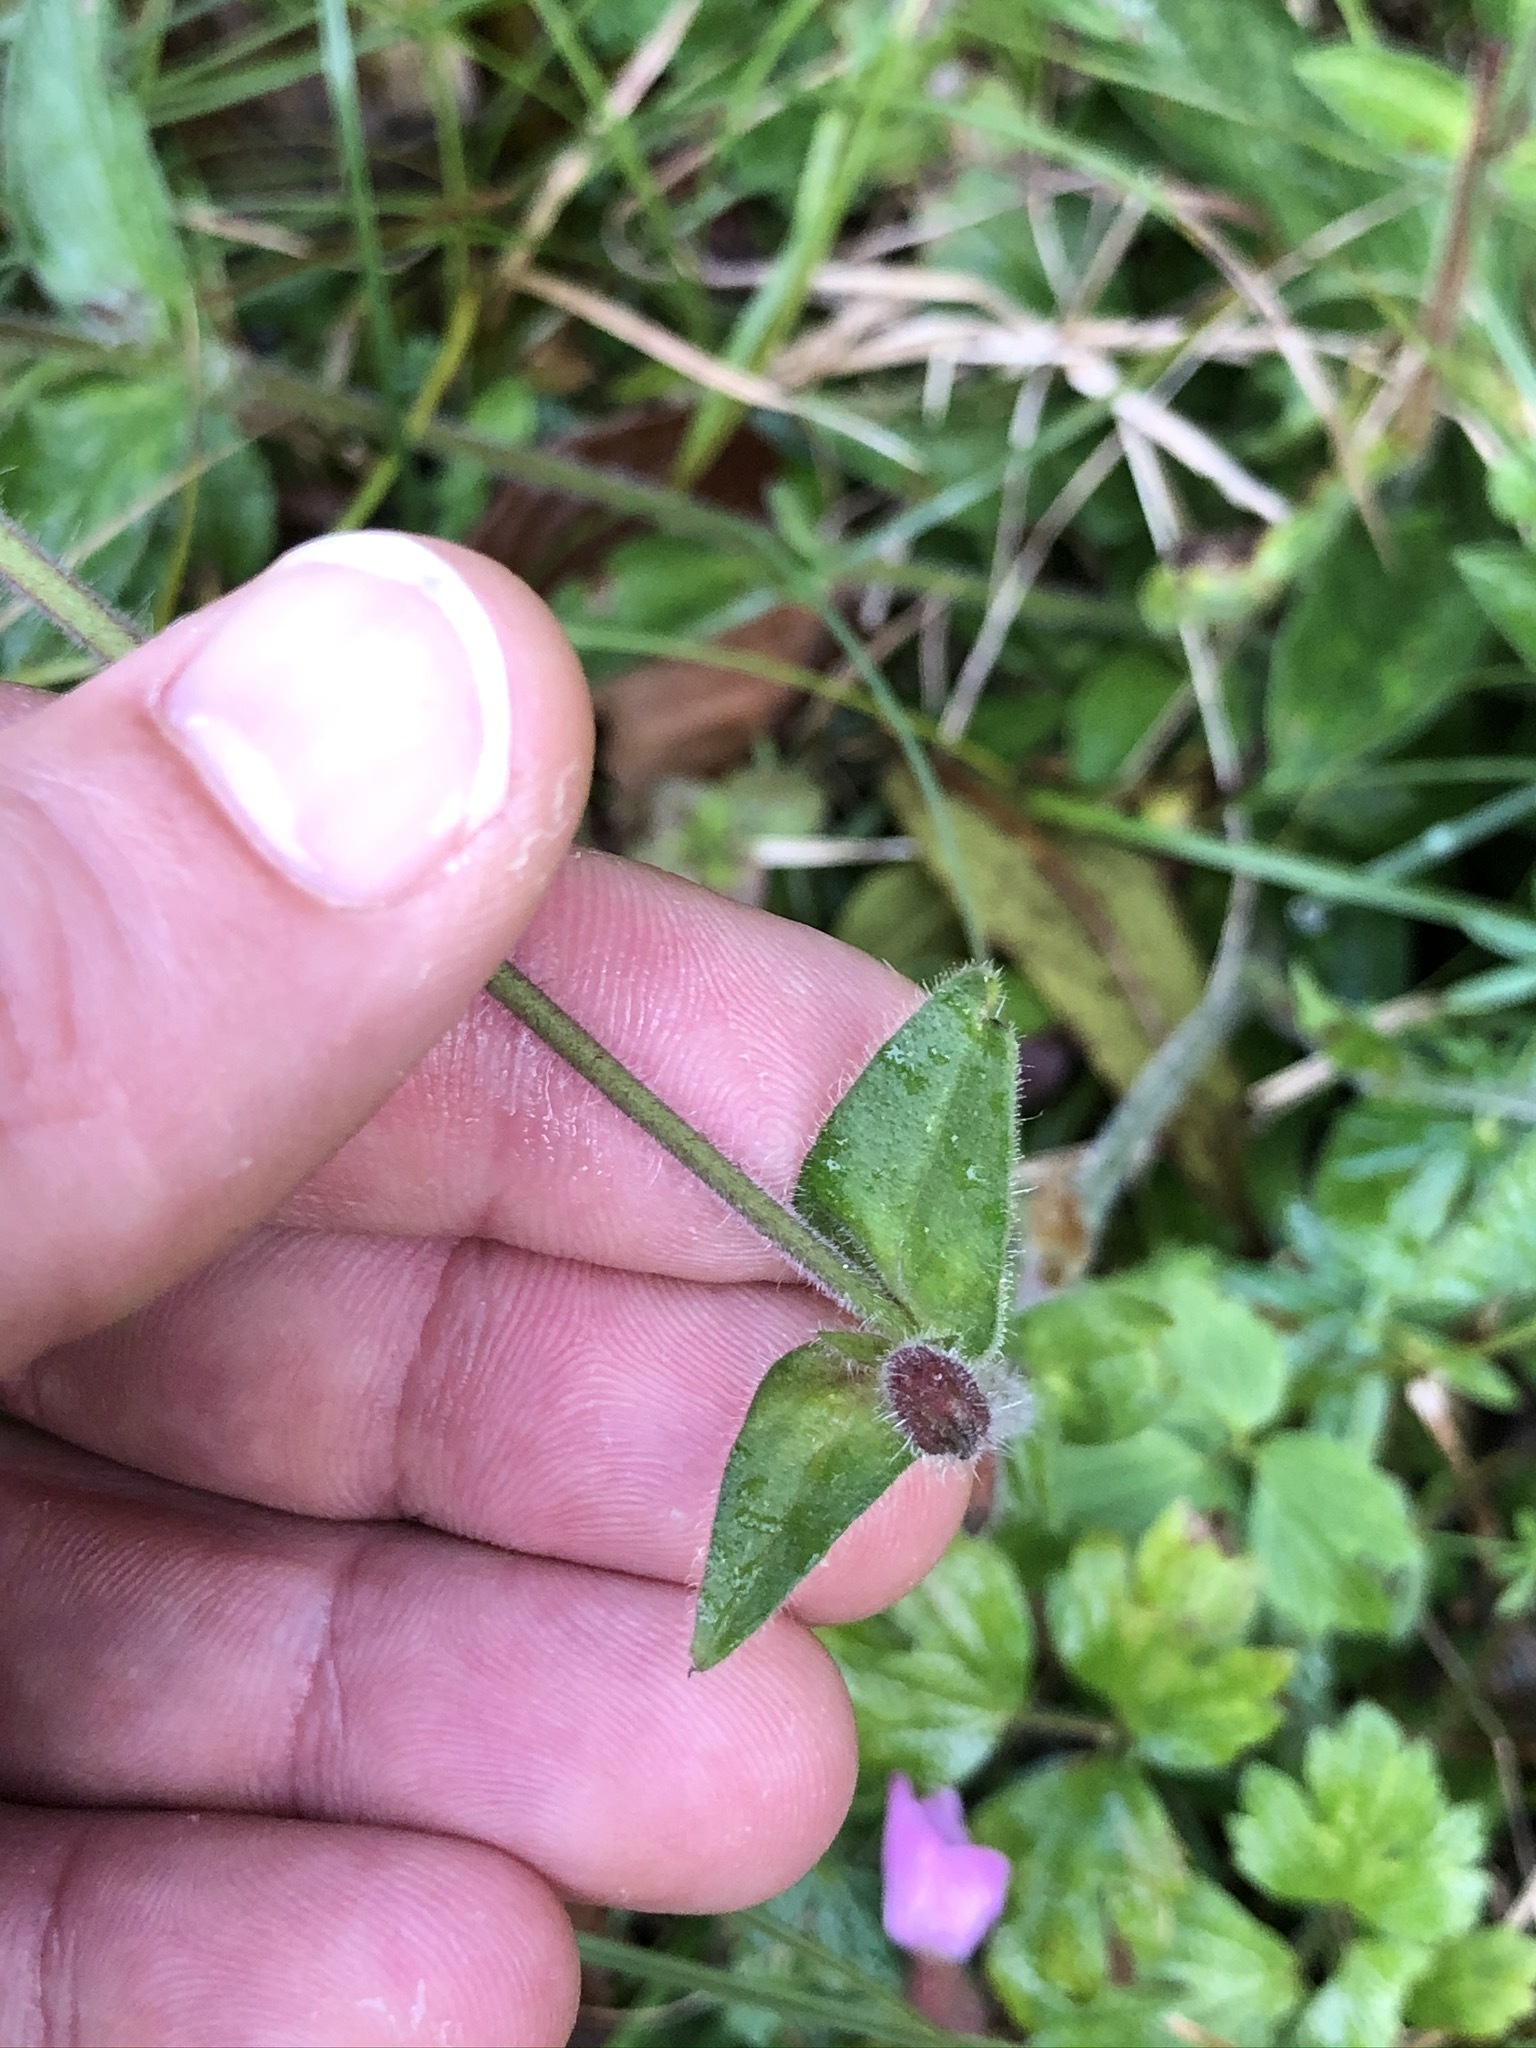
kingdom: Plantae
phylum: Tracheophyta
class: Magnoliopsida
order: Caryophyllales
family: Caryophyllaceae
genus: Silene
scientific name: Silene dioica
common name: Red campion
